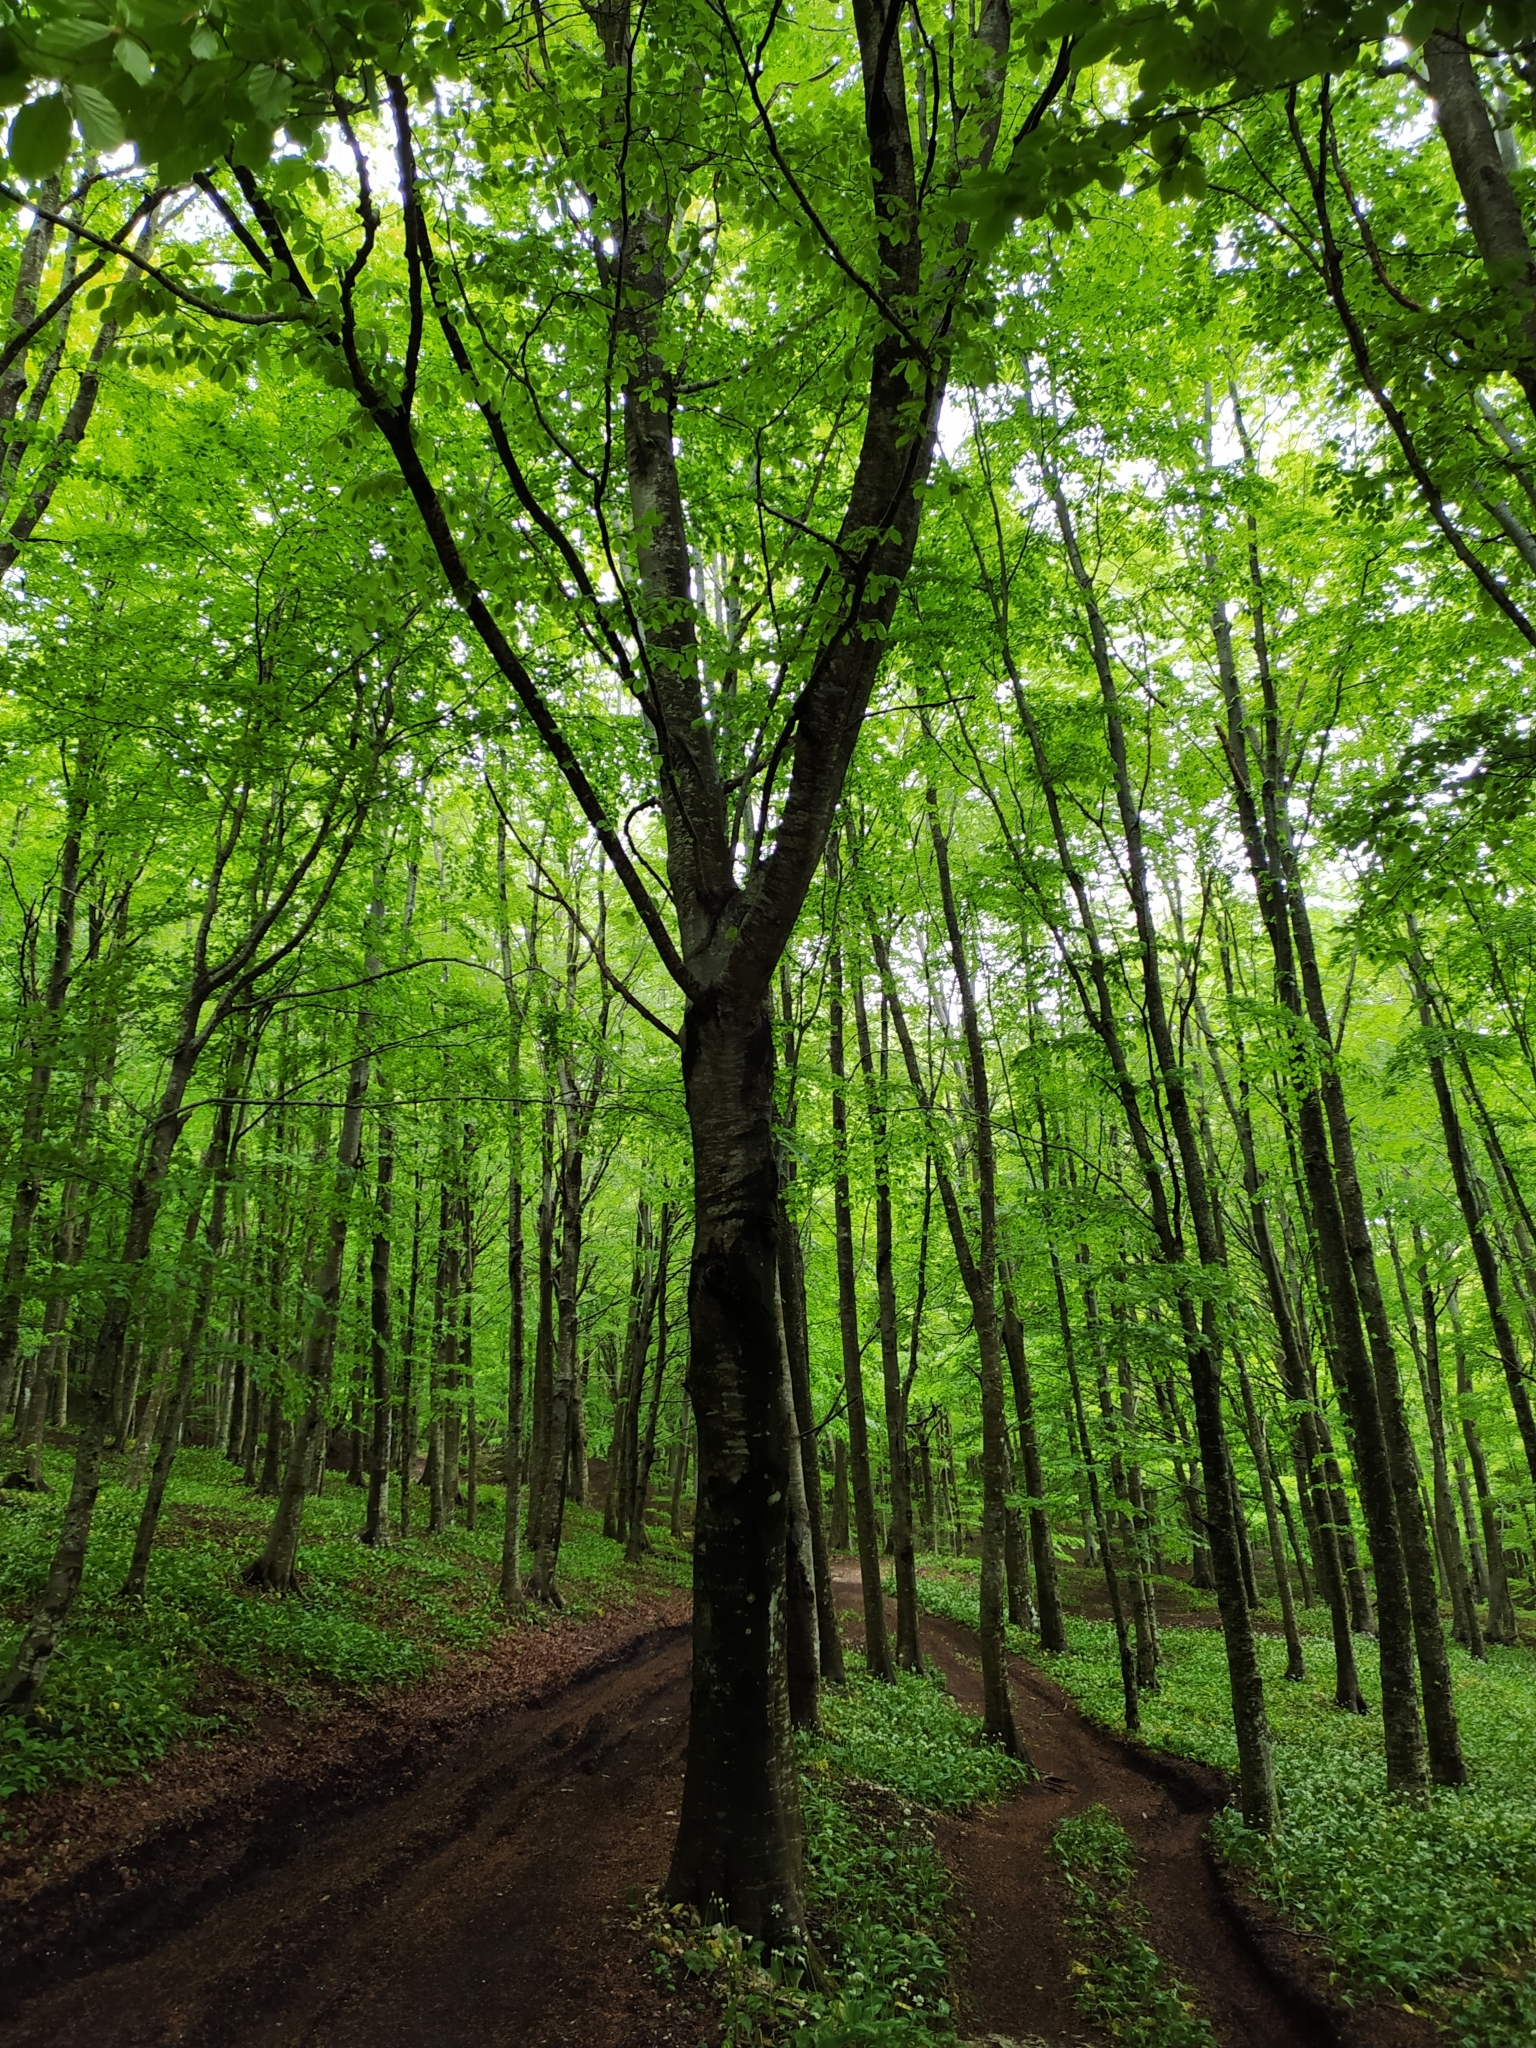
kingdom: Plantae
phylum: Tracheophyta
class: Magnoliopsida
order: Fagales
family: Fagaceae
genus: Fagus
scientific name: Fagus sylvatica
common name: Beech
